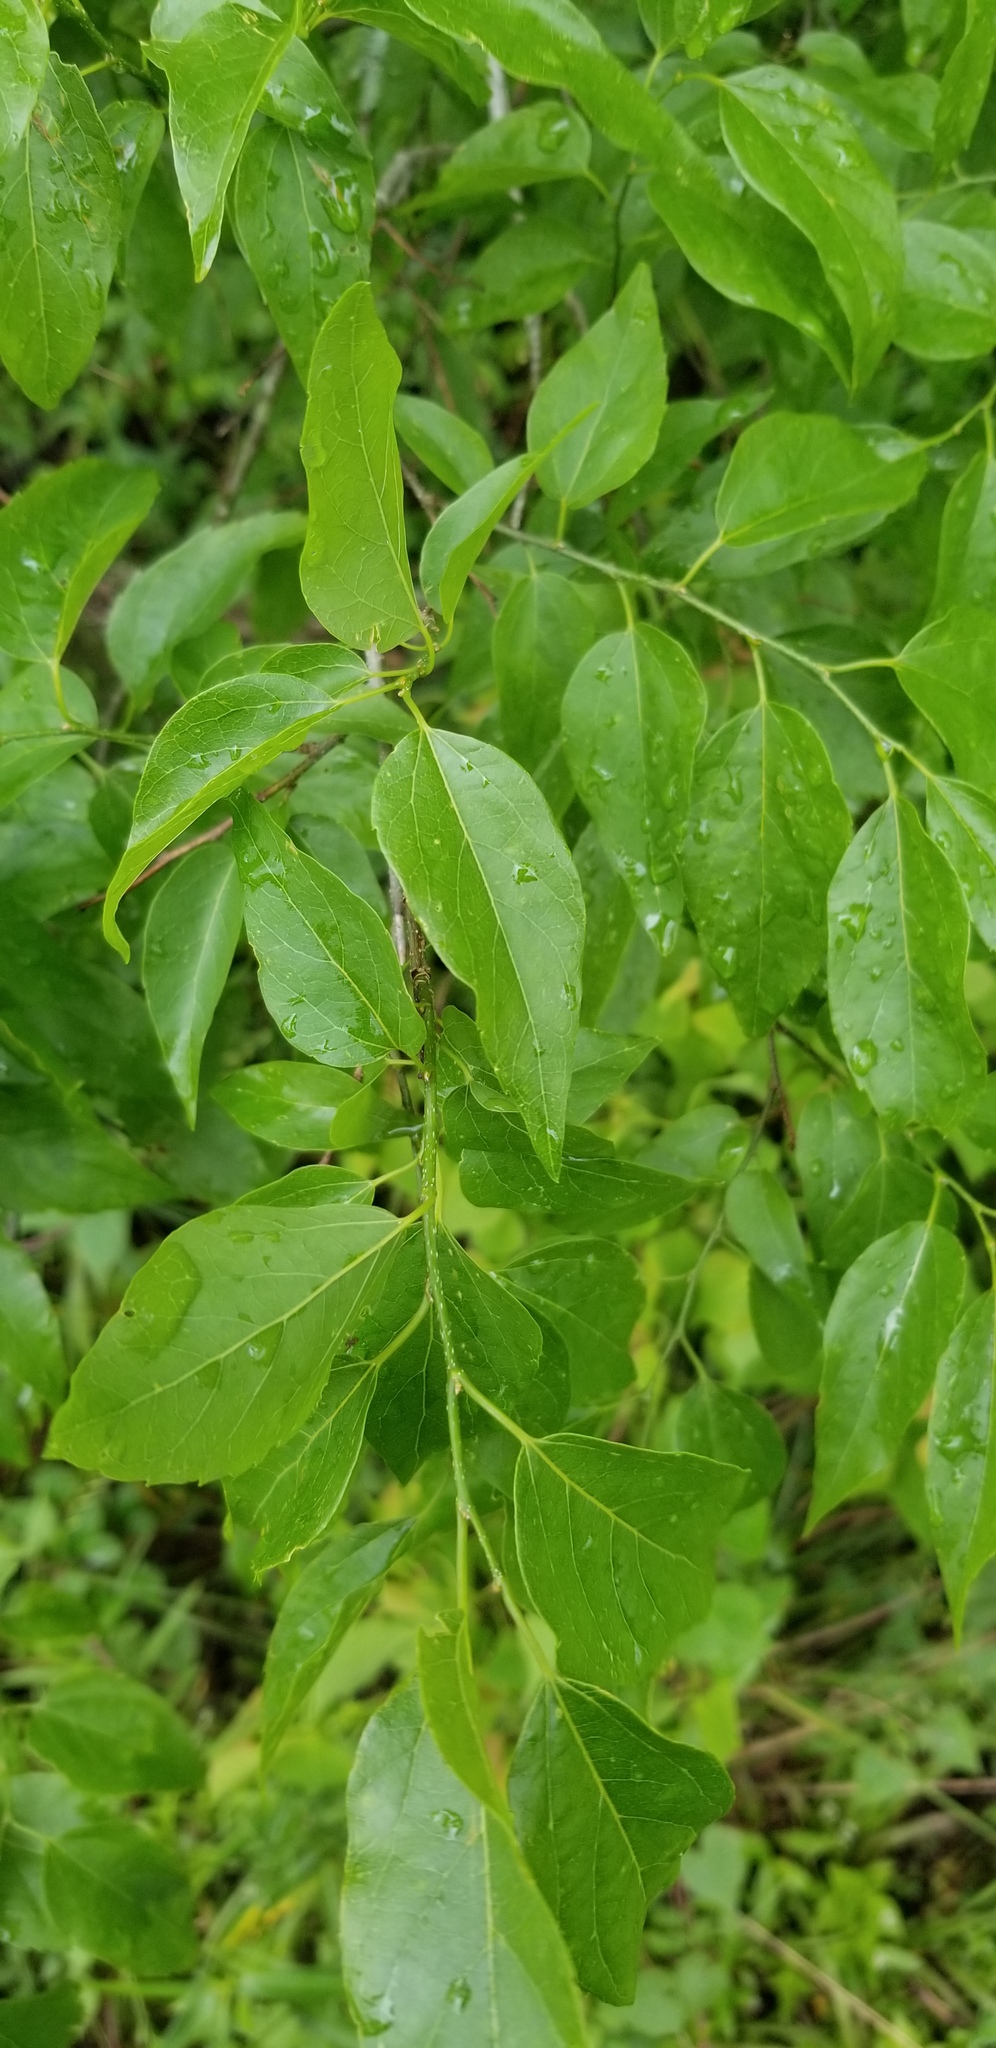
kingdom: Plantae
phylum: Tracheophyta
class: Magnoliopsida
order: Rosales
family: Cannabaceae
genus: Celtis
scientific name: Celtis laevigata
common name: Sugarberry
